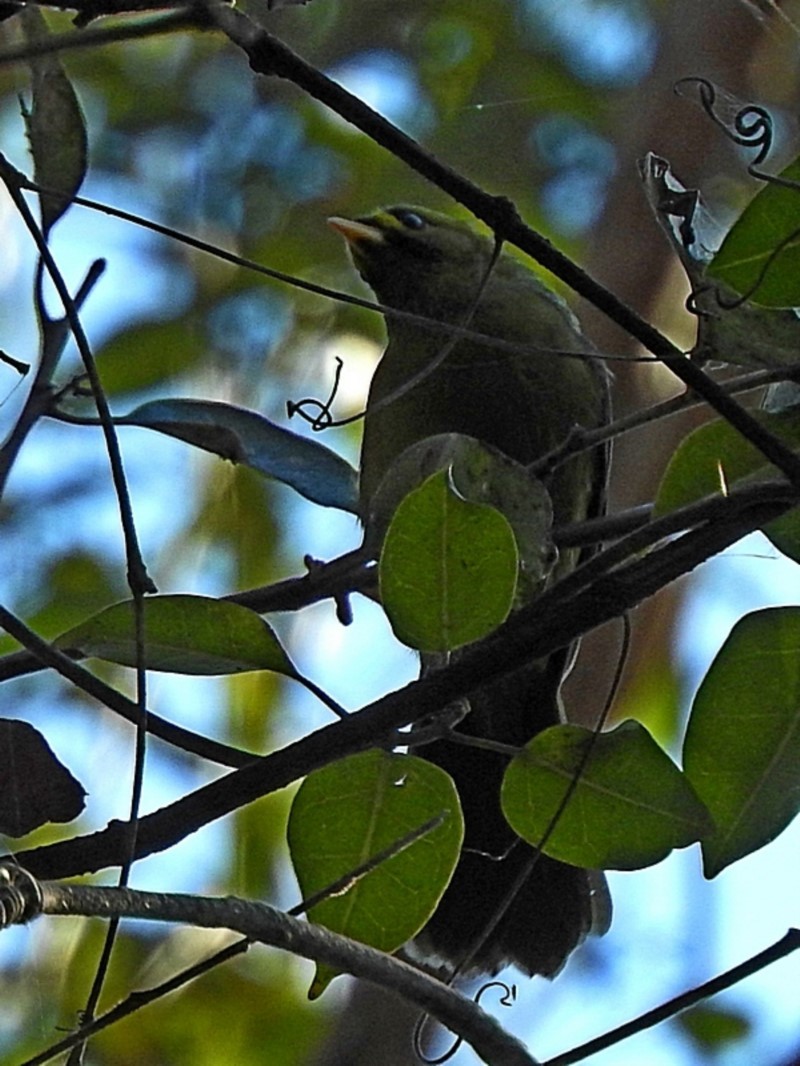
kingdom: Animalia
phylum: Chordata
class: Aves
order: Passeriformes
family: Meliphagidae
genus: Manorina
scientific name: Manorina melanophrys
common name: Bell miner
